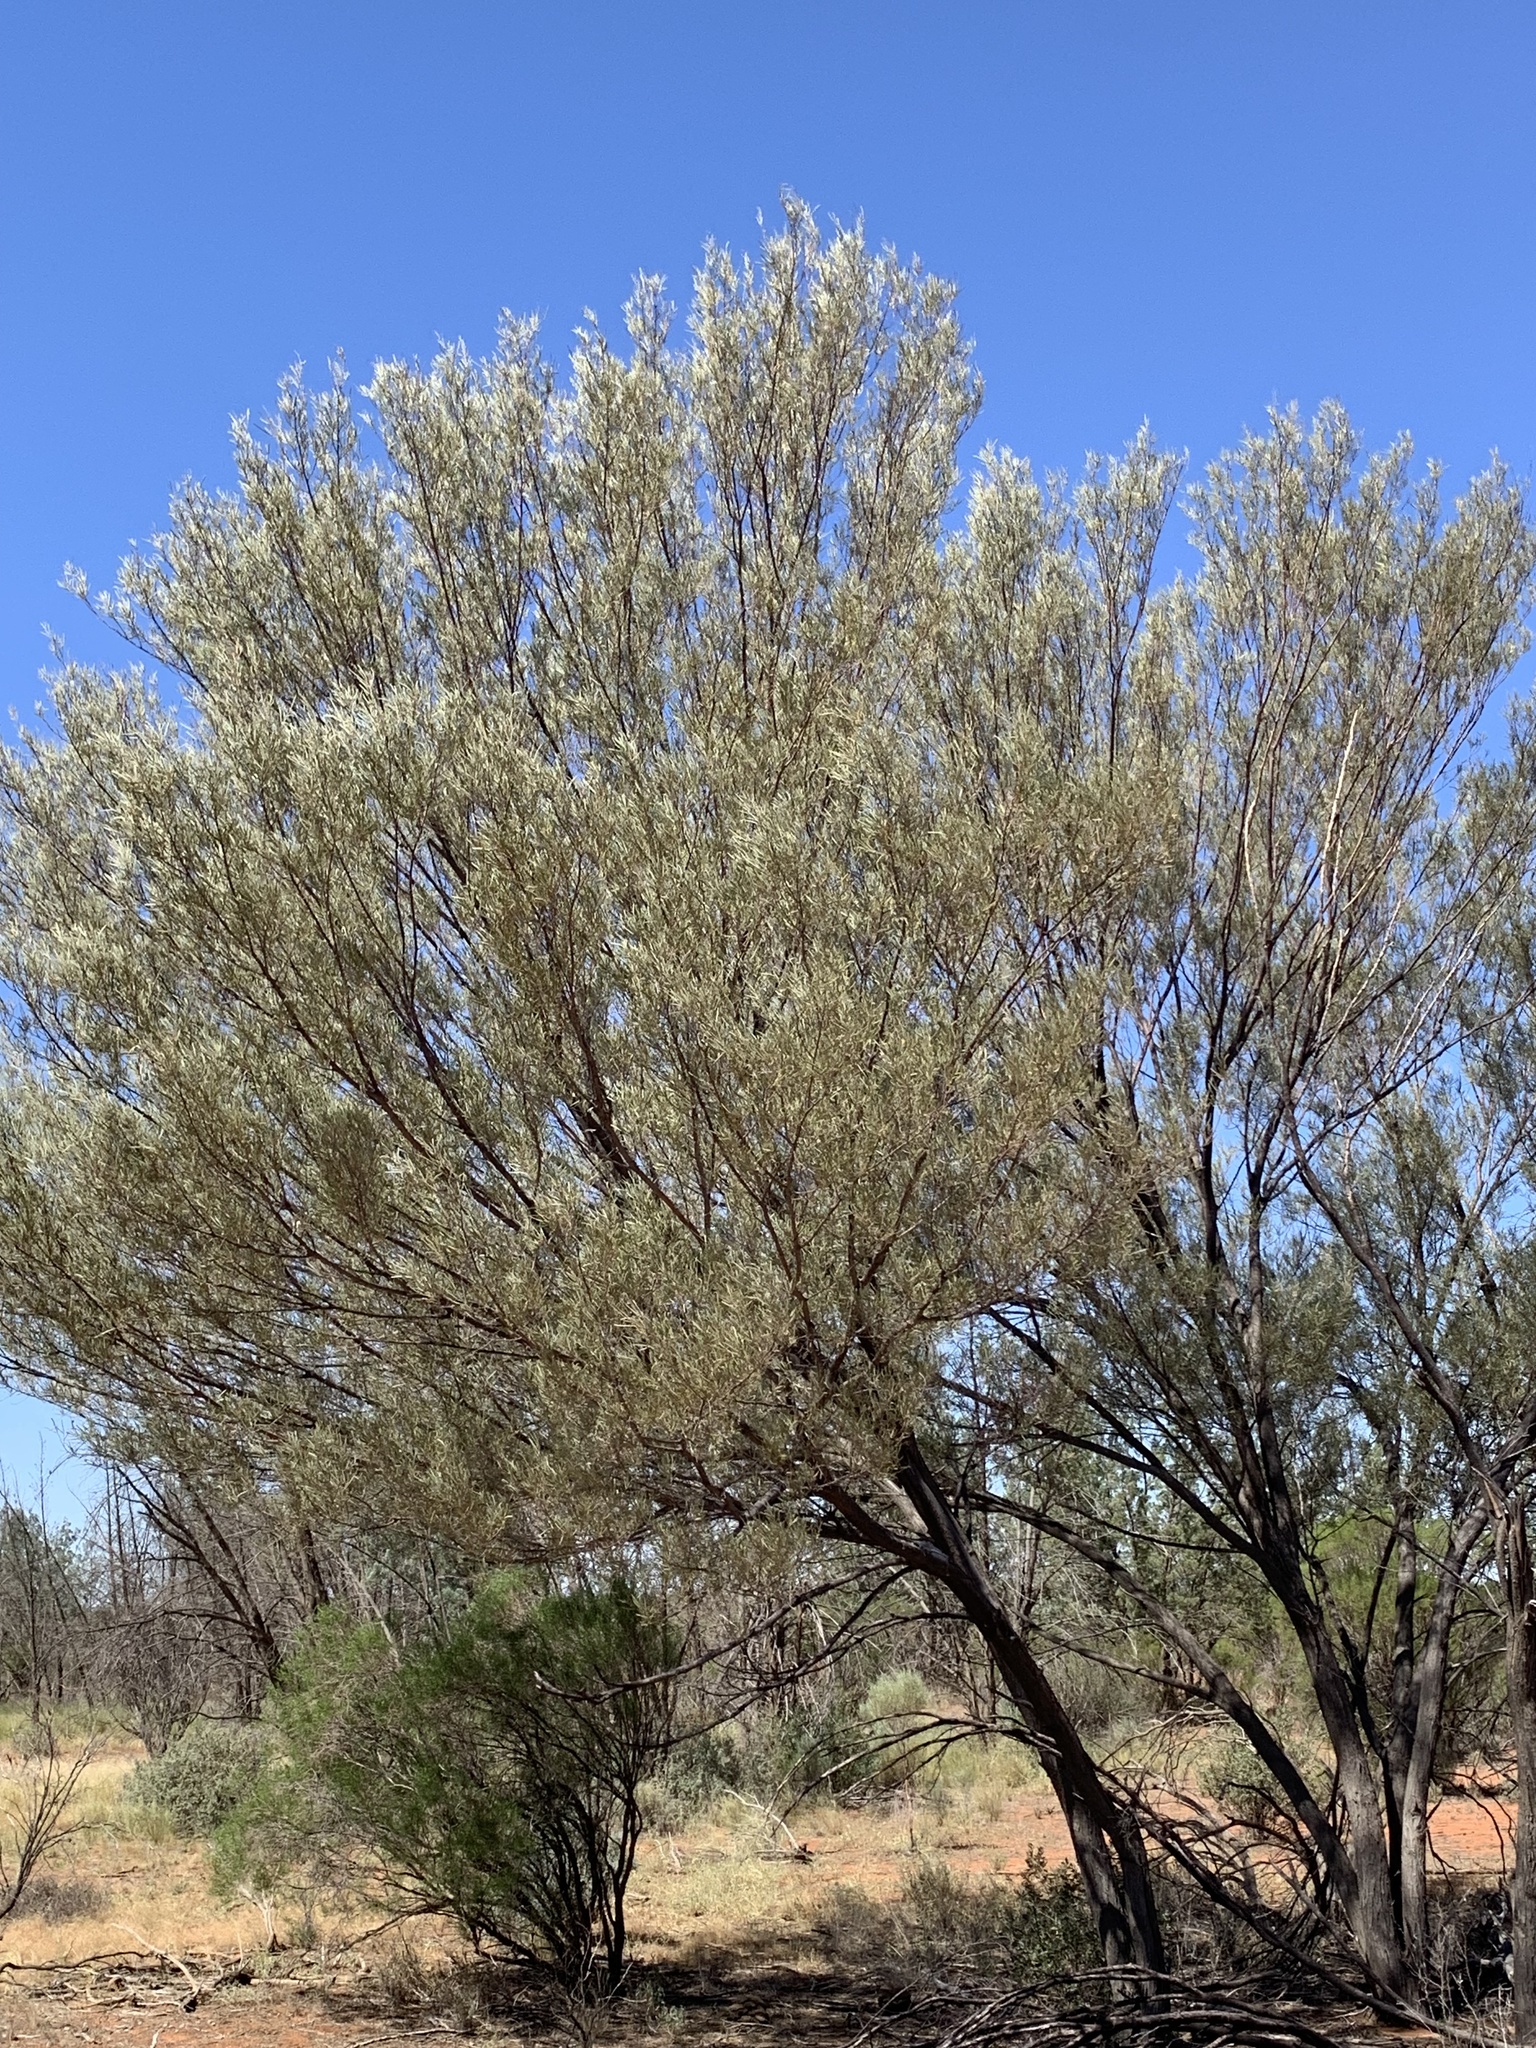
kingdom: Plantae
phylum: Tracheophyta
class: Magnoliopsida
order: Fabales
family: Fabaceae
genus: Acacia
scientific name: Acacia aneura
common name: Mulga
